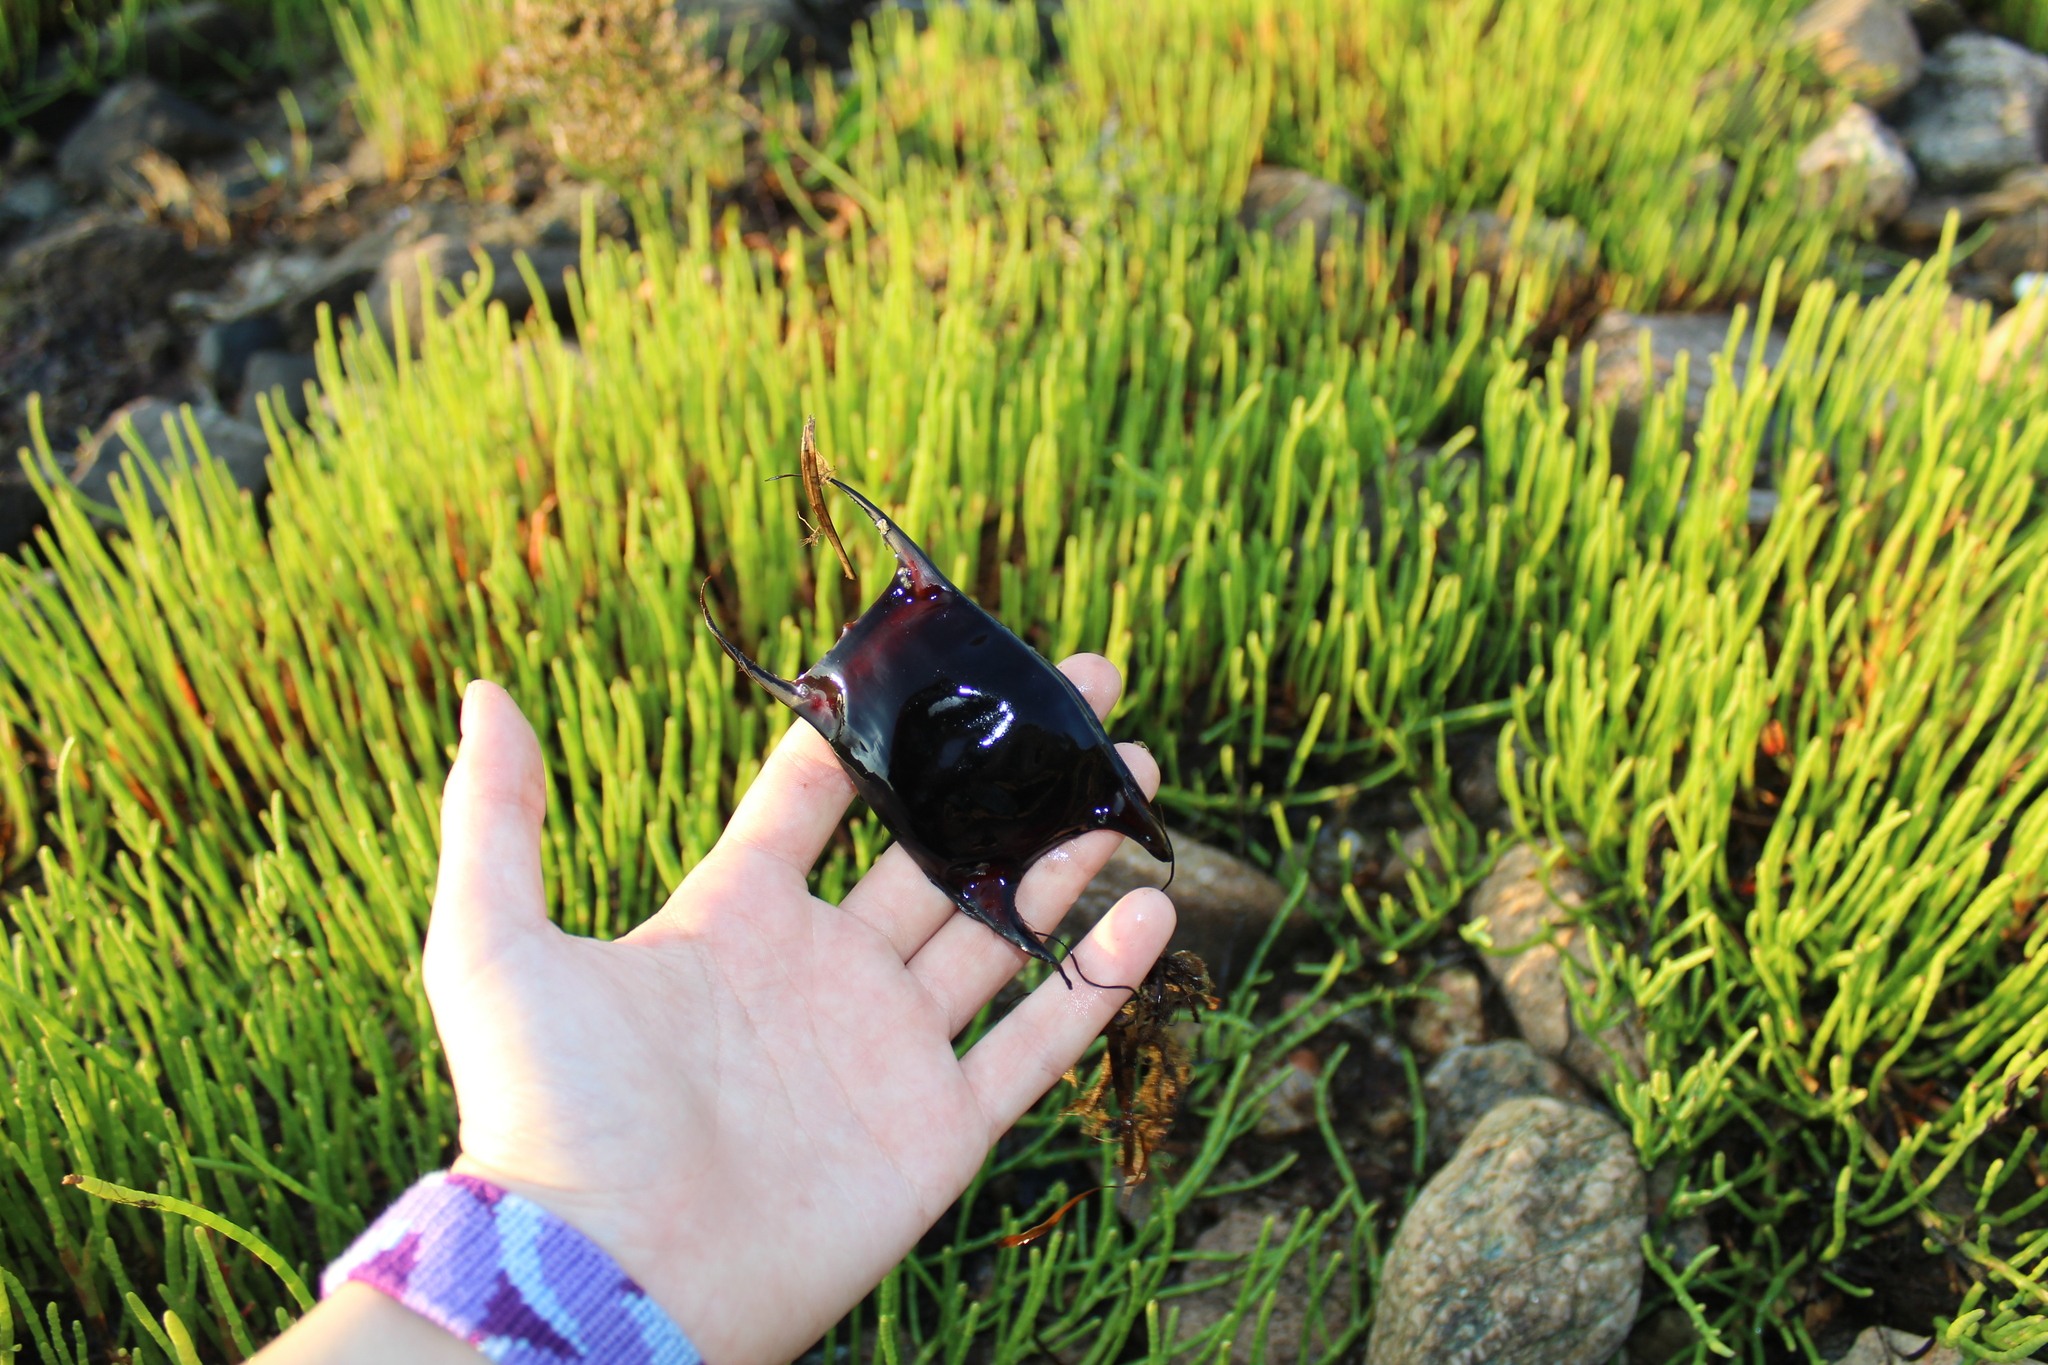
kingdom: Animalia
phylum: Chordata
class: Elasmobranchii
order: Rajiformes
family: Rajidae
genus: Raja
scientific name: Raja eglanteria
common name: Clearnose skate
